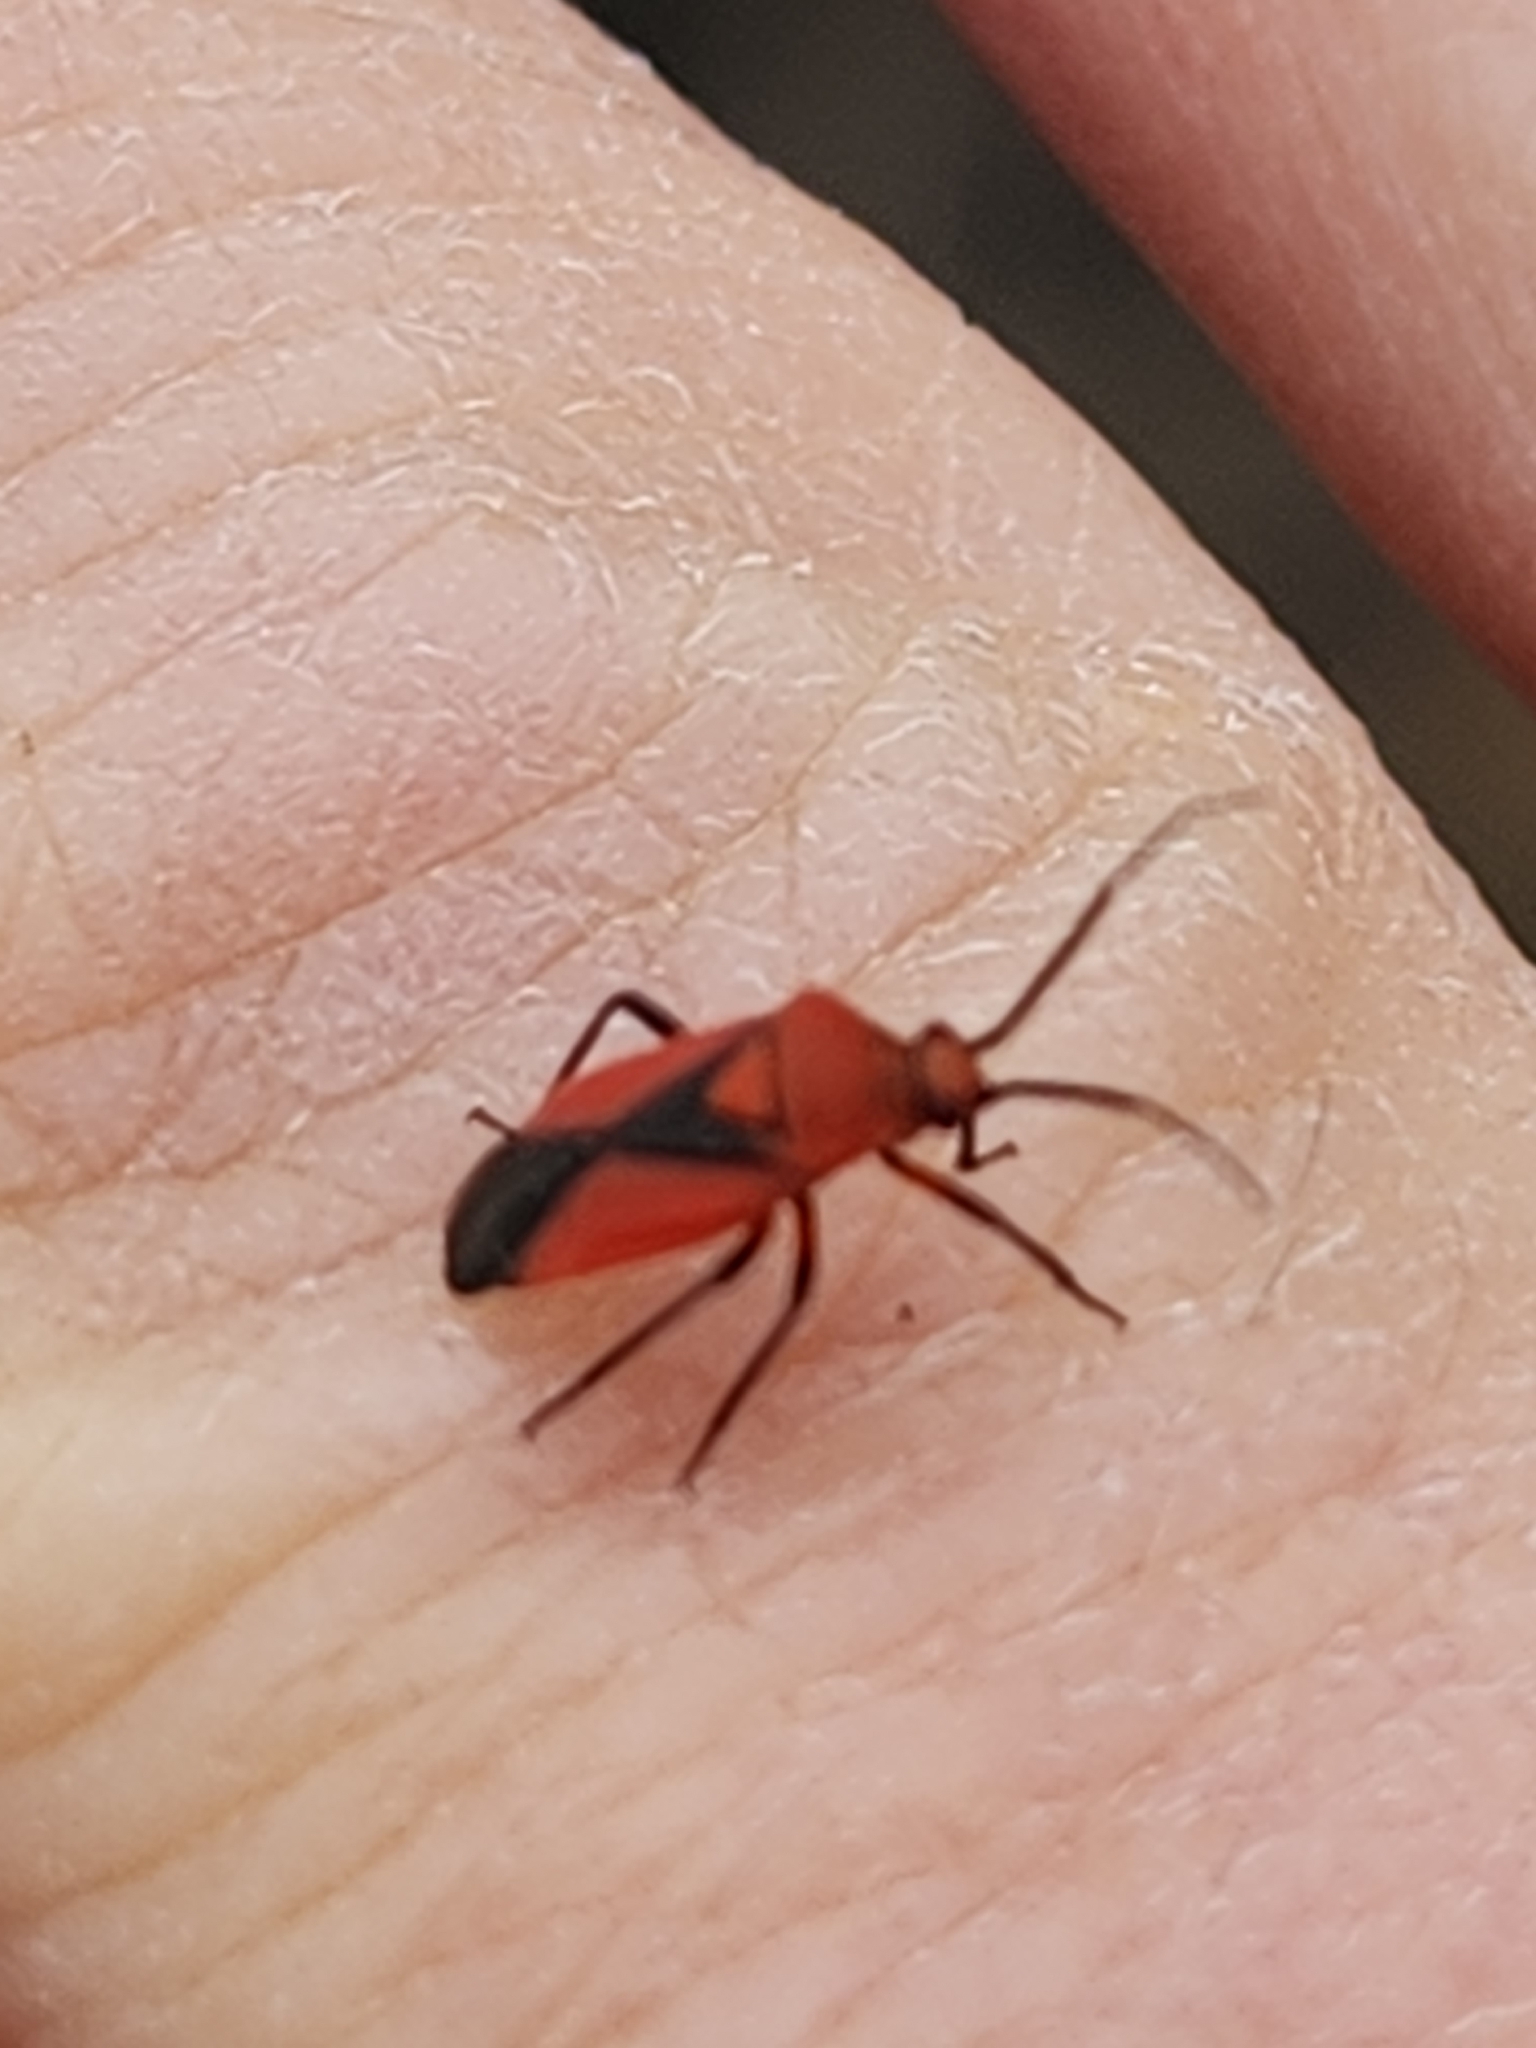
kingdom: Animalia
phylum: Arthropoda
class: Insecta
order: Hemiptera
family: Miridae
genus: Oncerometopus
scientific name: Oncerometopus nigriclavus
